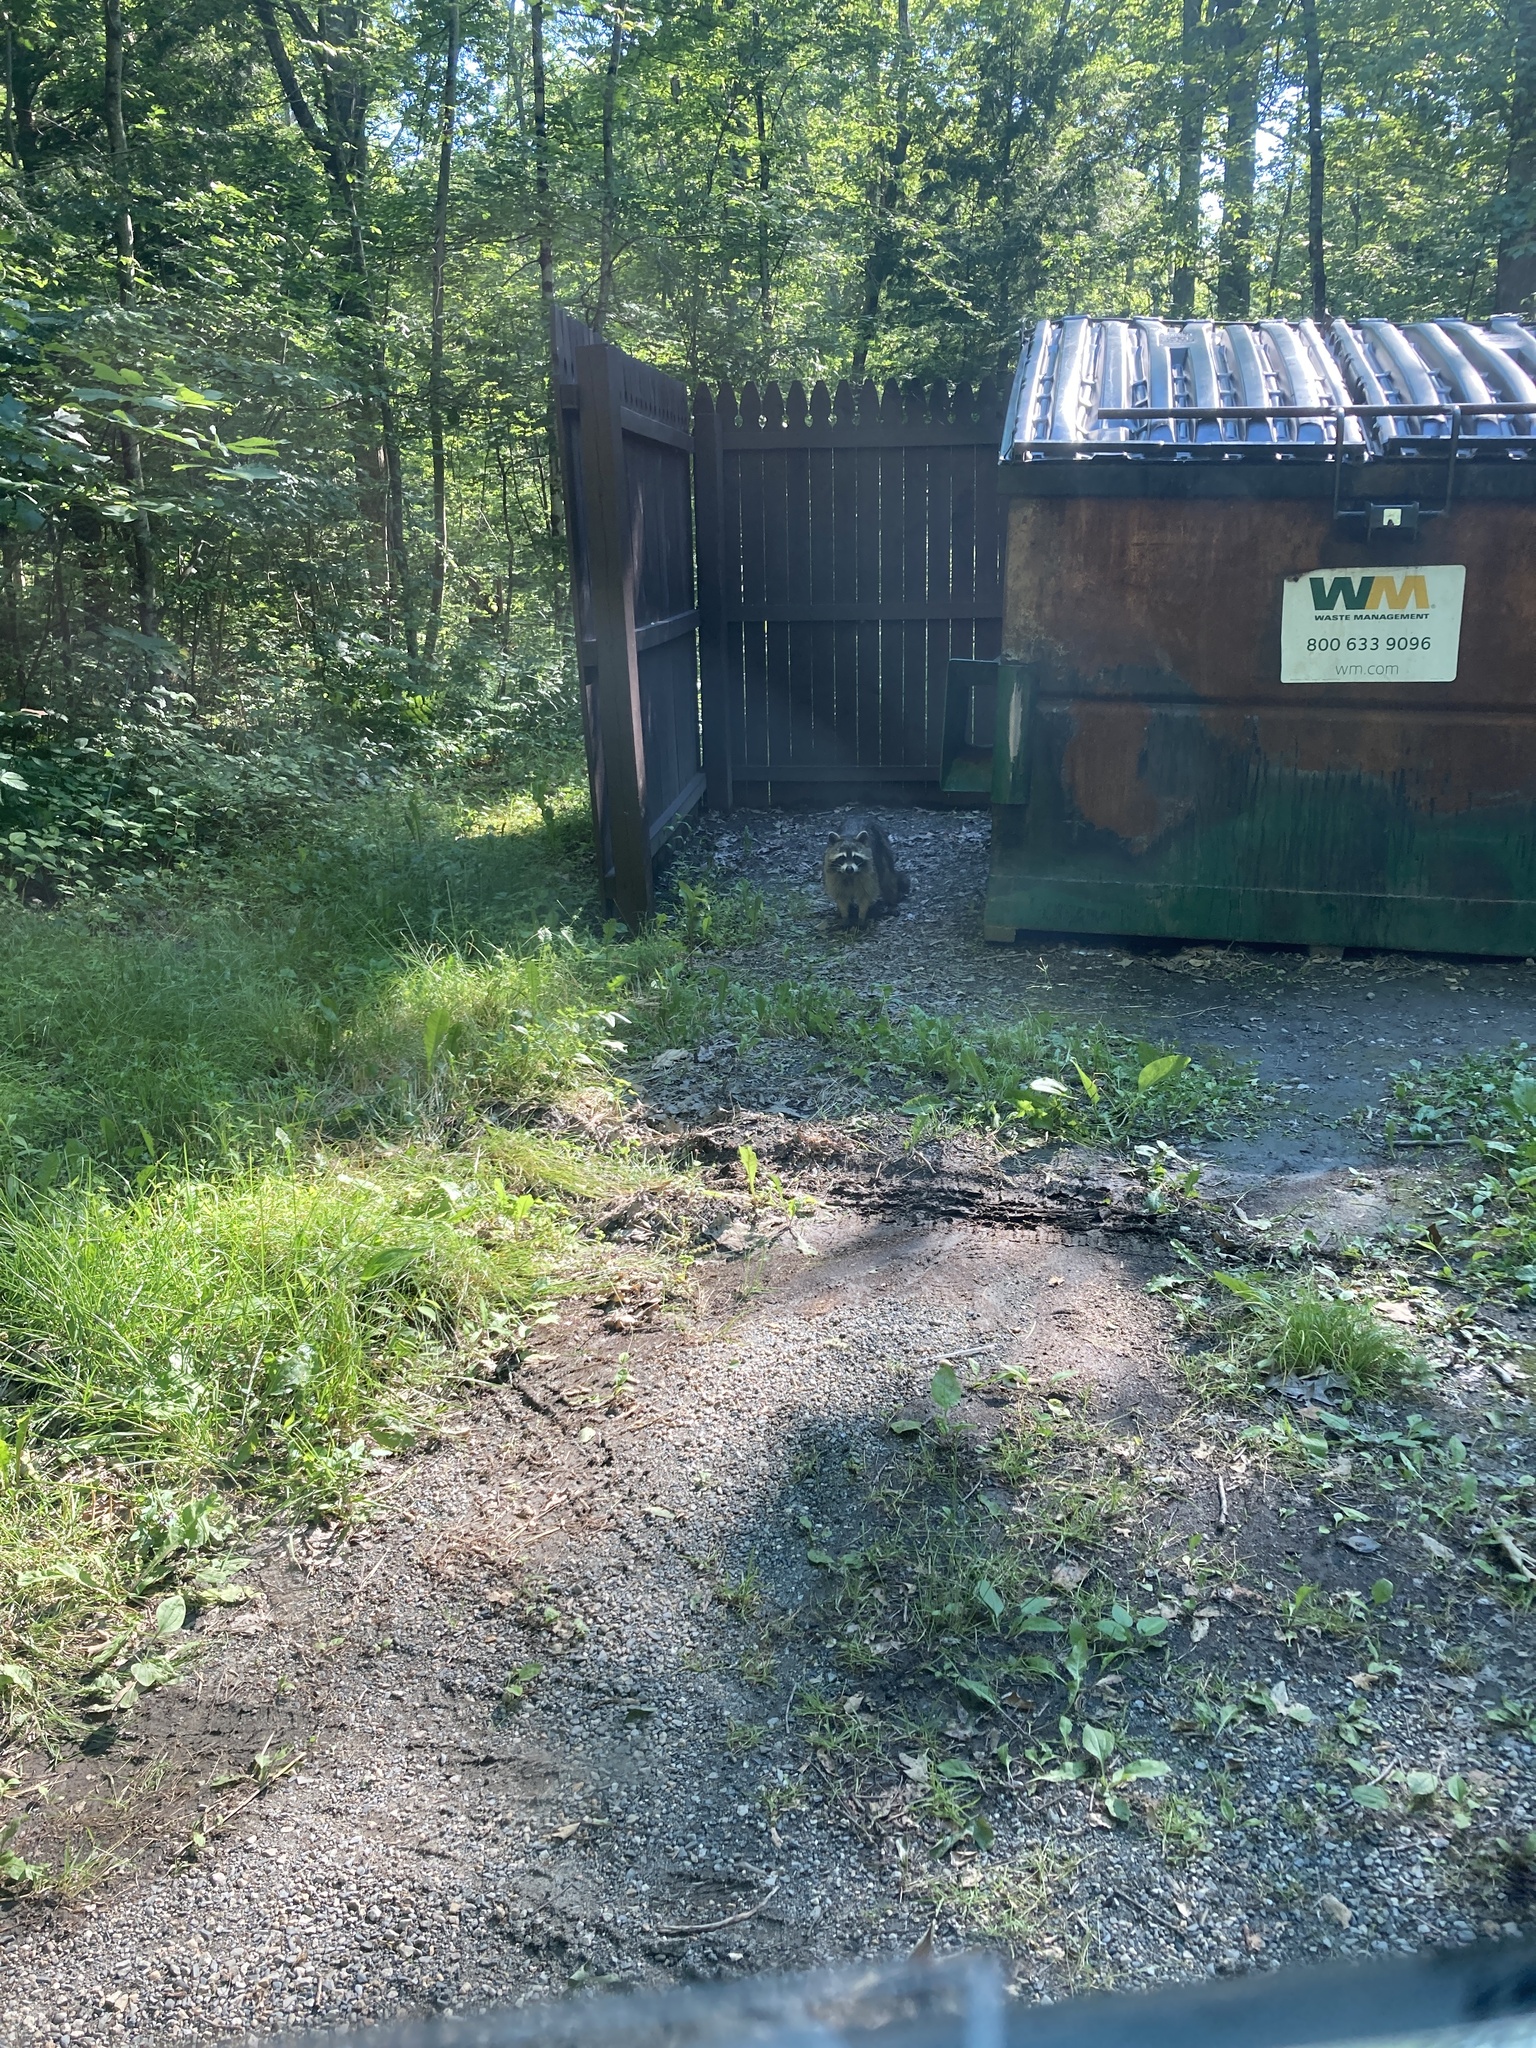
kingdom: Animalia
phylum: Chordata
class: Mammalia
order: Carnivora
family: Procyonidae
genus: Procyon
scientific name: Procyon lotor
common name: Raccoon
